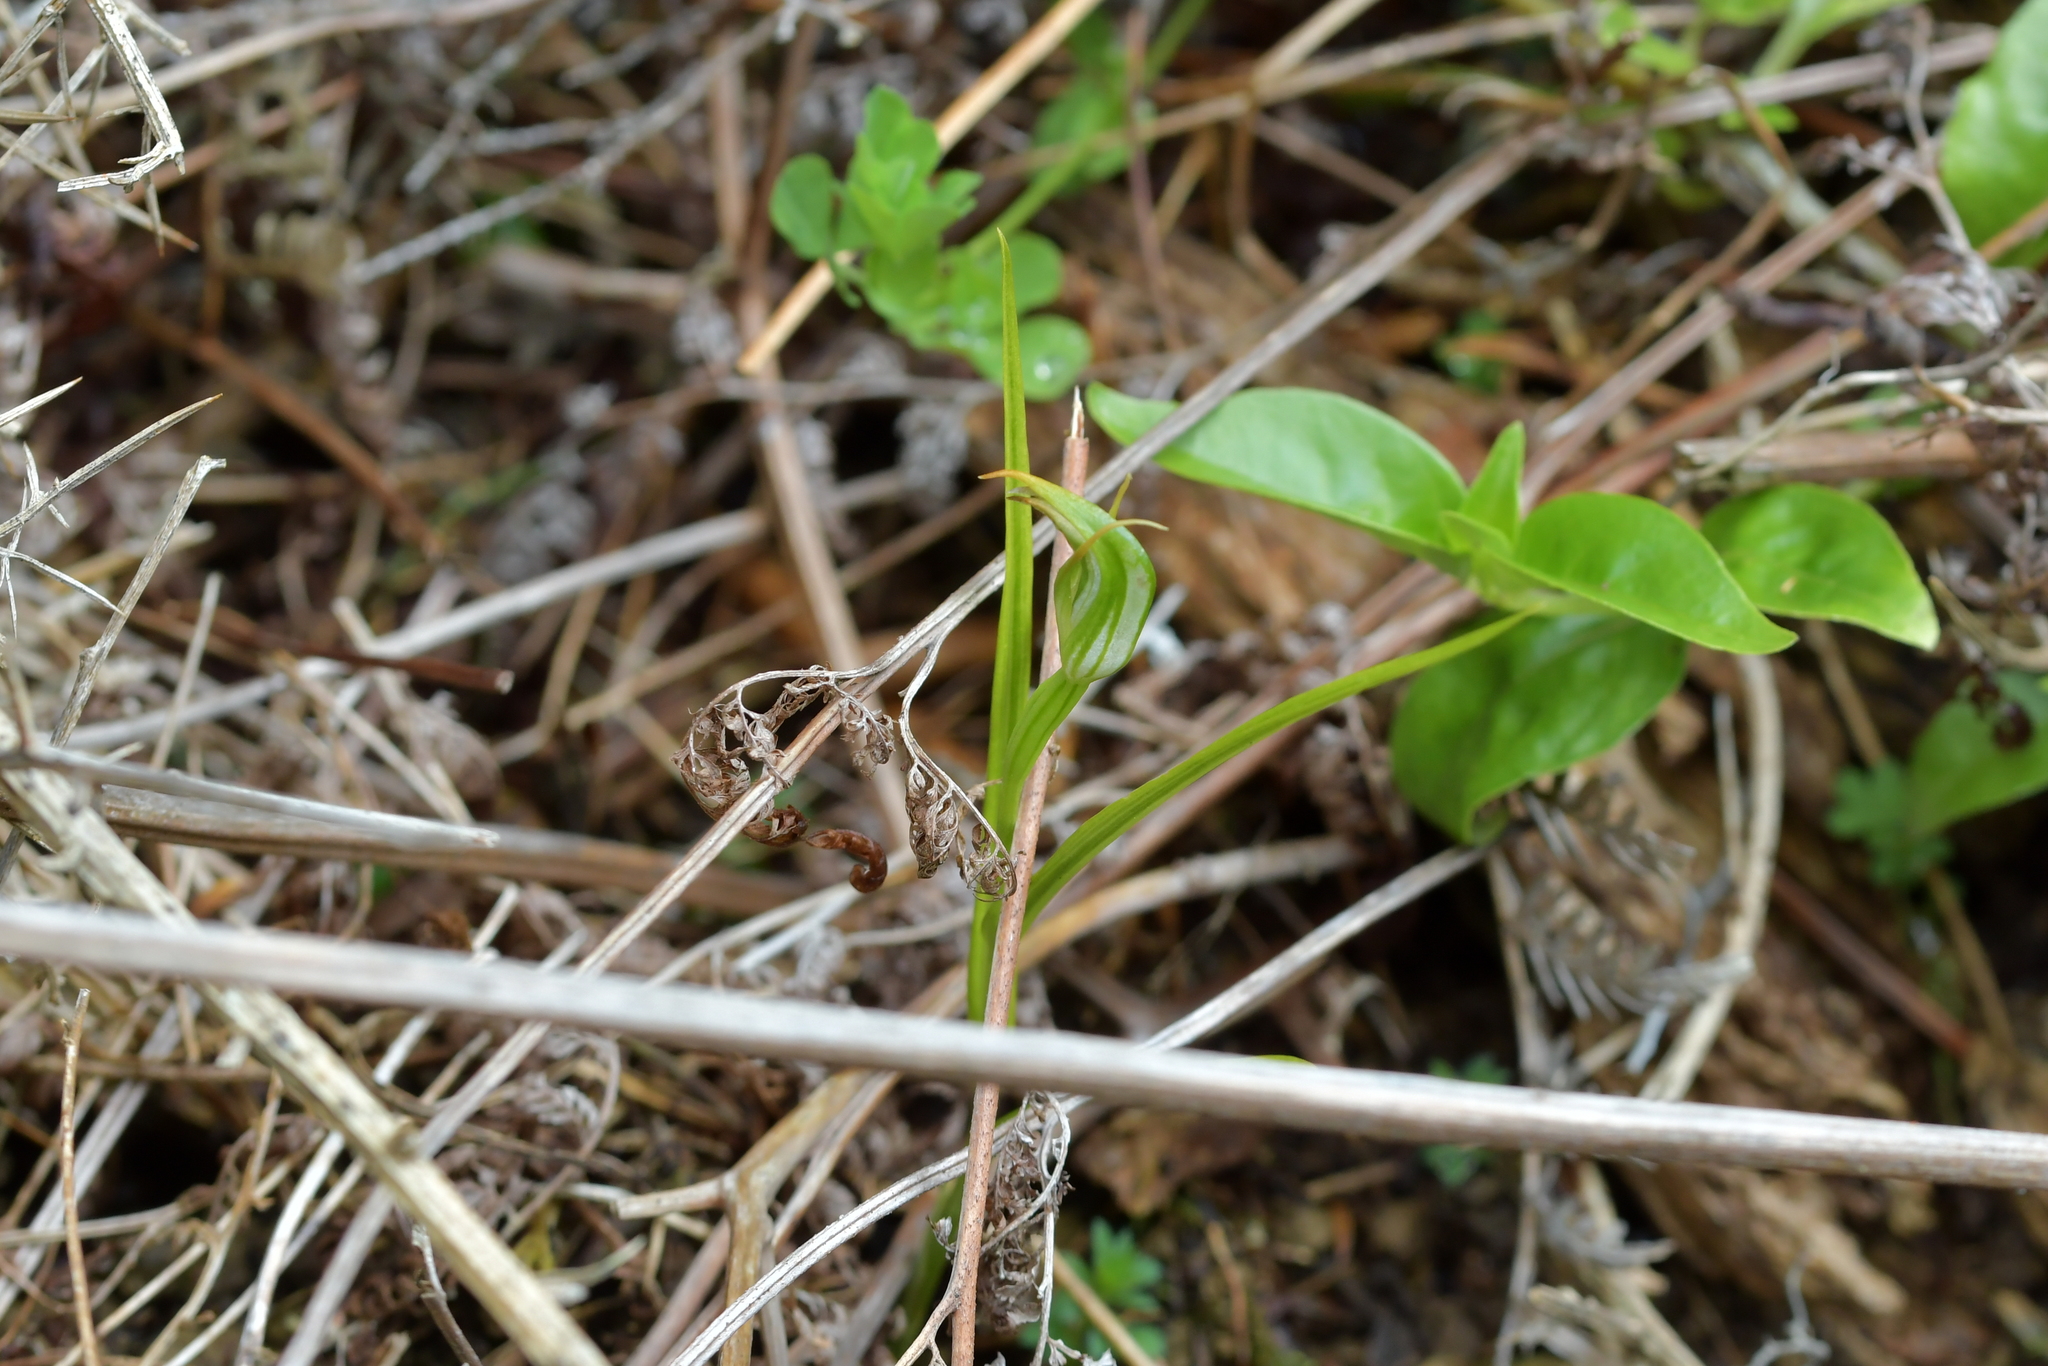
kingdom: Plantae
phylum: Tracheophyta
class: Liliopsida
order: Asparagales
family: Orchidaceae
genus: Pterostylis
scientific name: Pterostylis graminea
